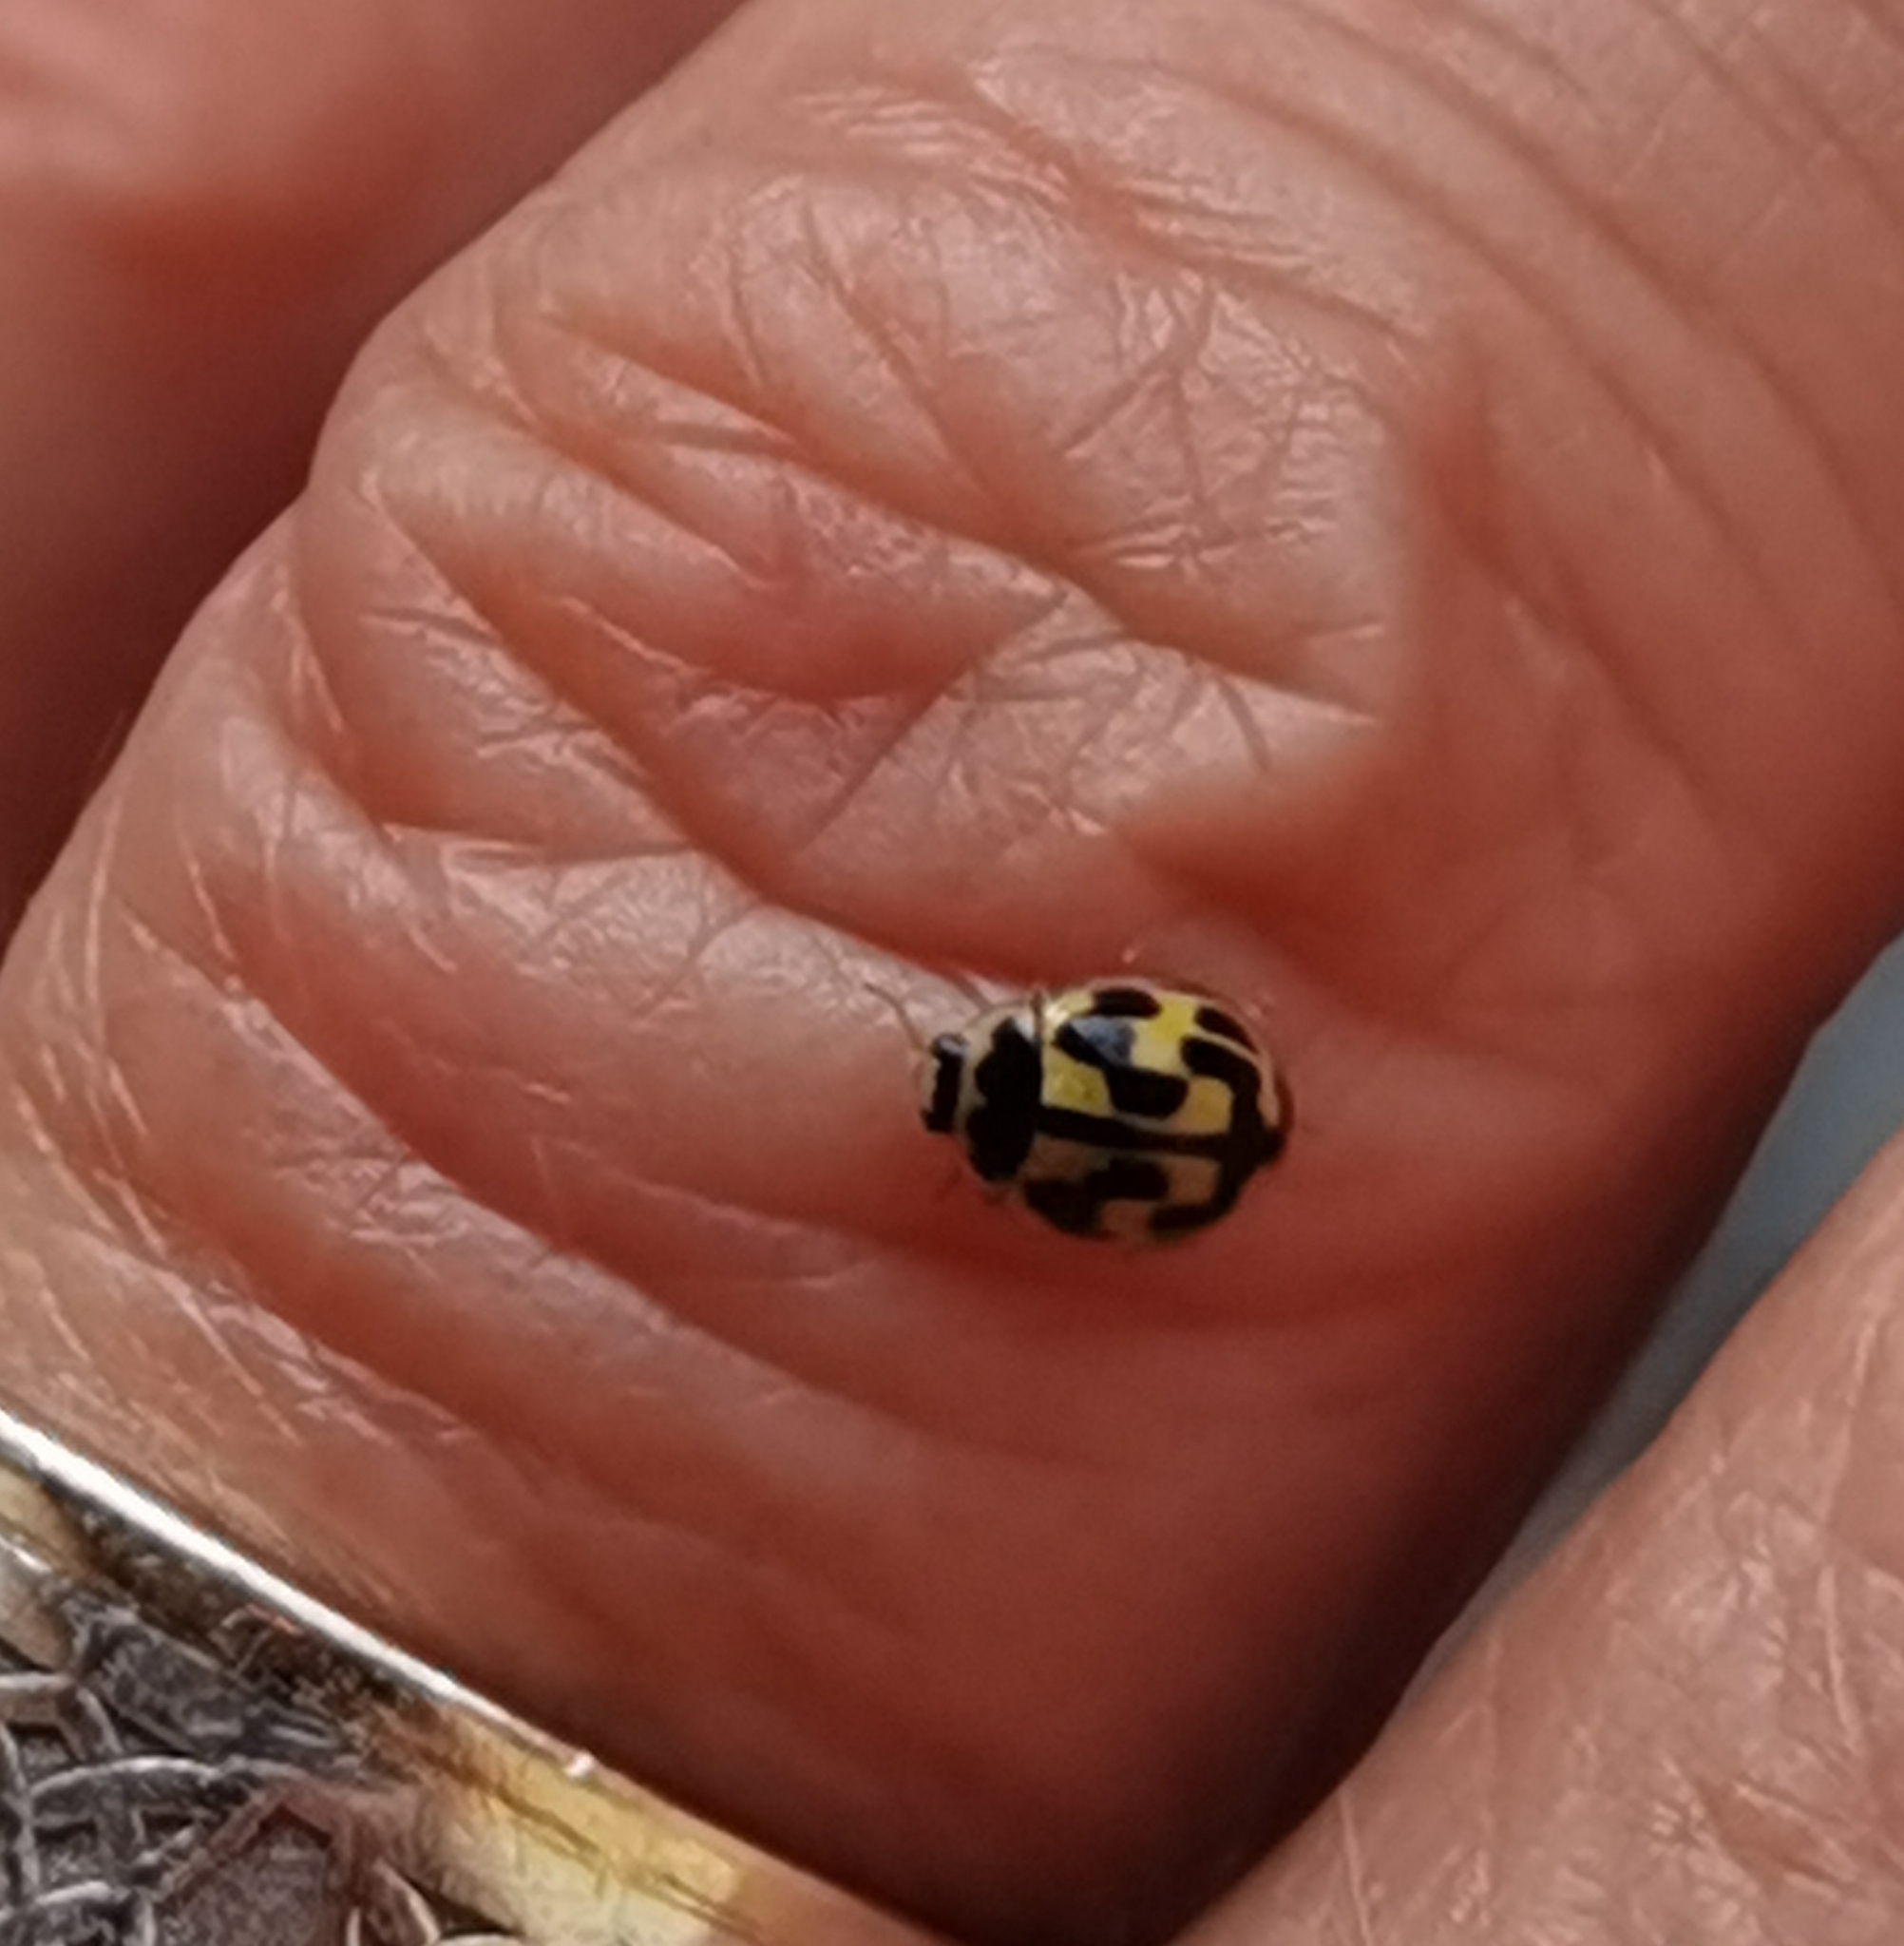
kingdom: Animalia
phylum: Arthropoda
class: Insecta
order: Coleoptera
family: Coccinellidae
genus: Propylaea
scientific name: Propylaea quatuordecimpunctata
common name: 14-spotted ladybird beetle
